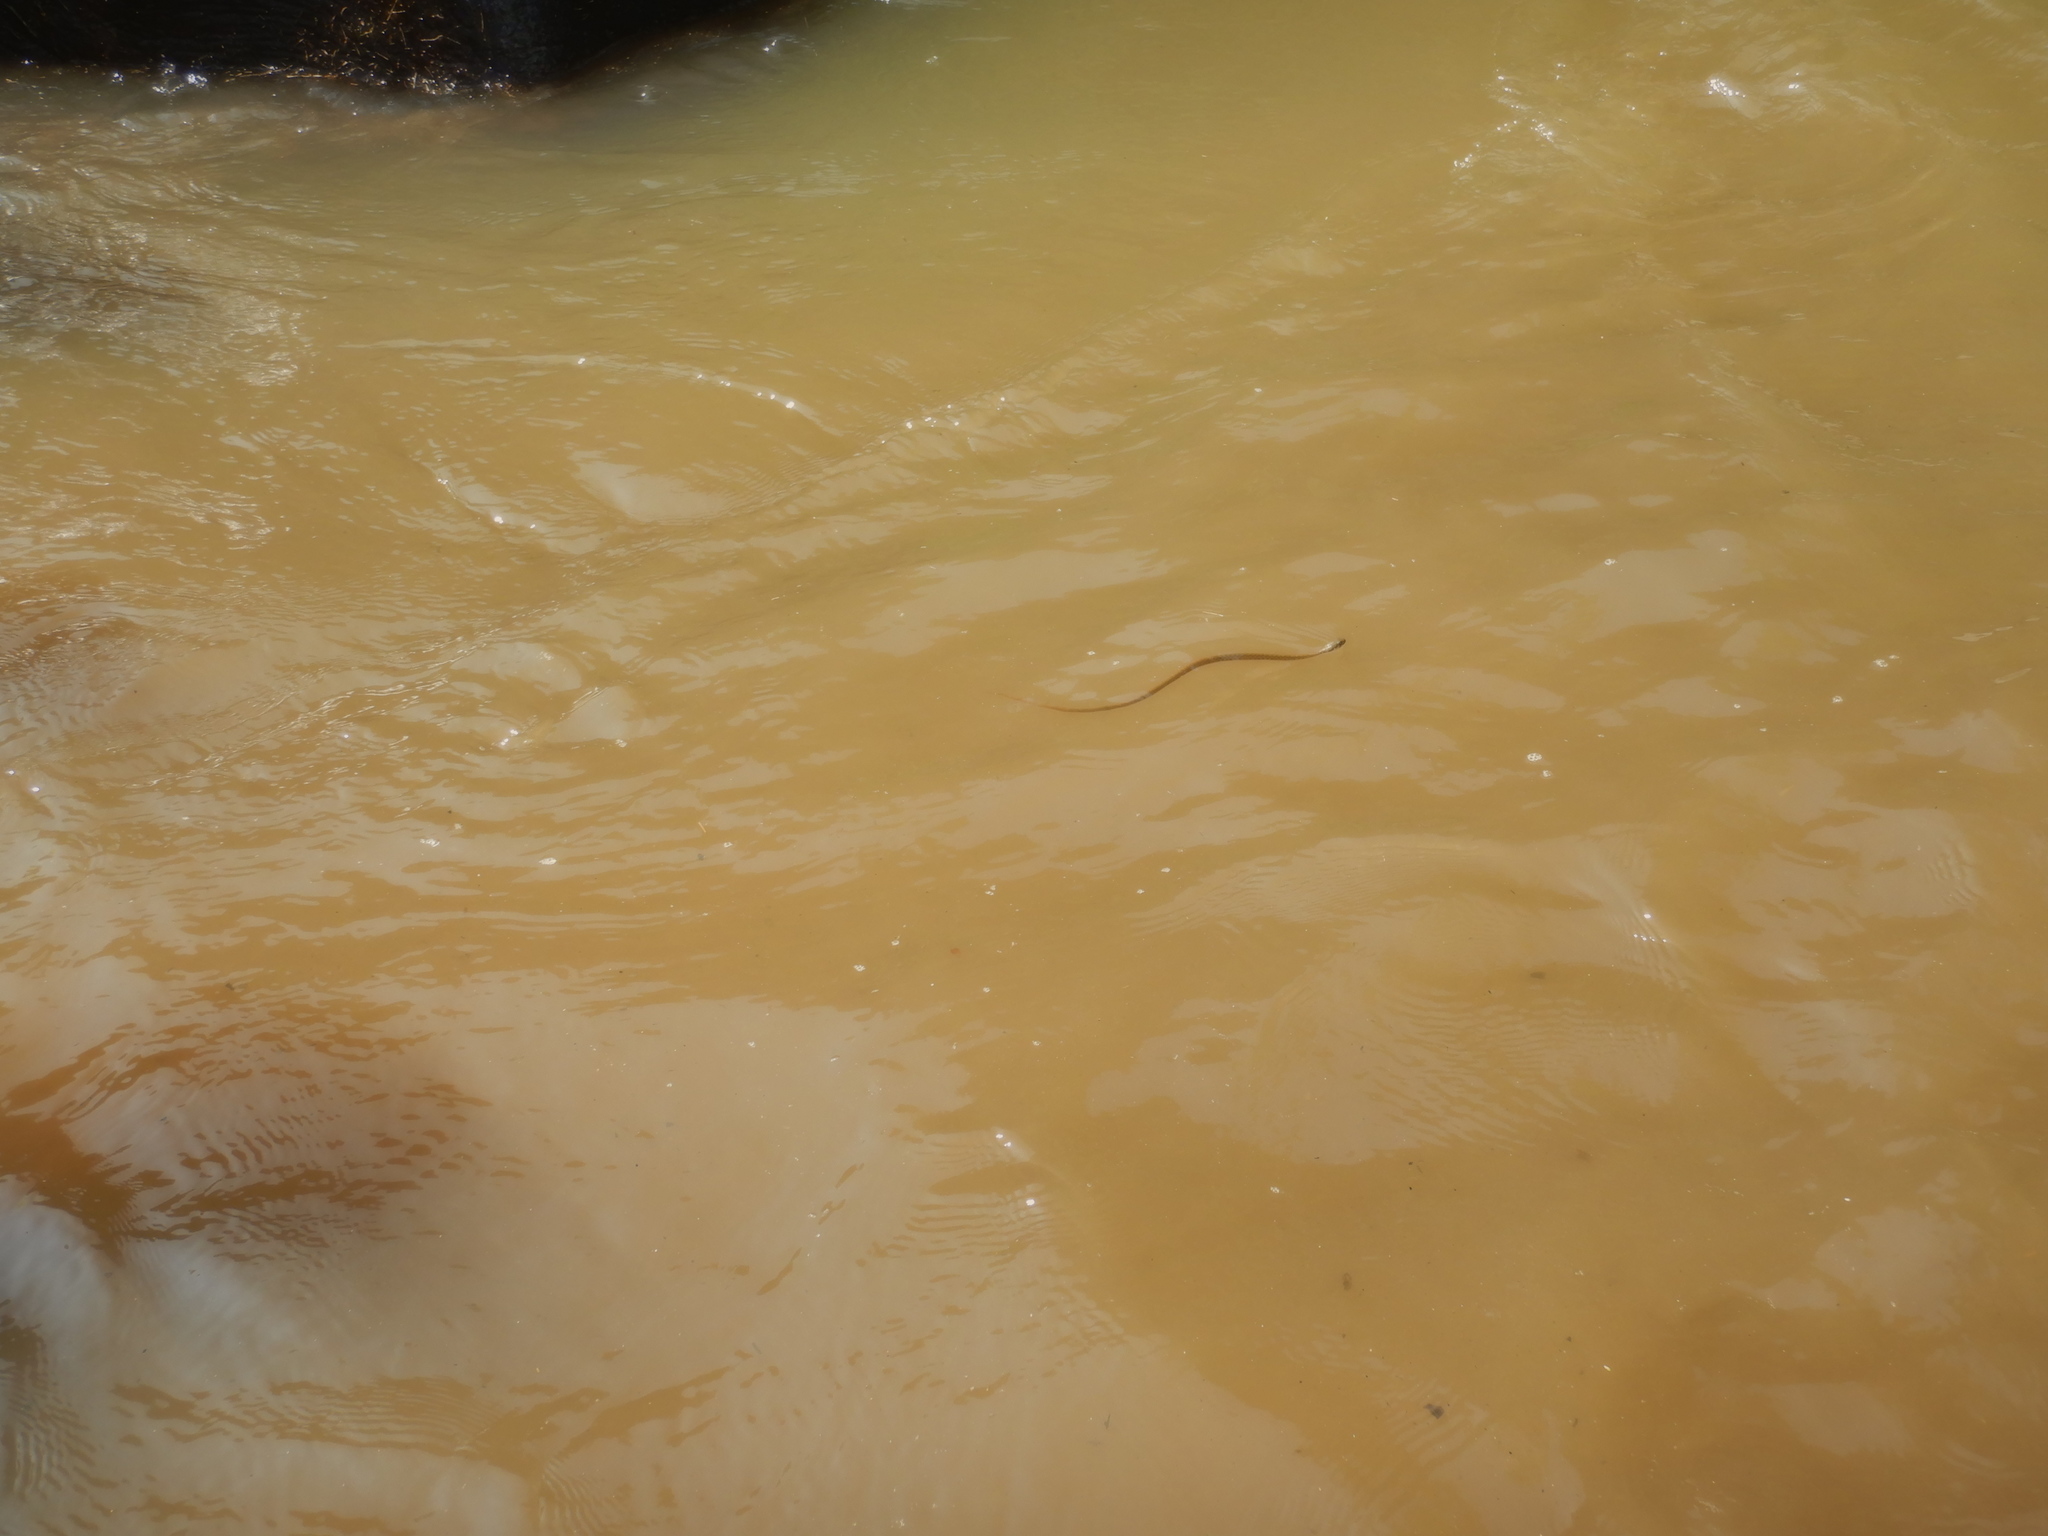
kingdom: Animalia
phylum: Chordata
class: Squamata
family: Colubridae
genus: Fowlea
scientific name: Fowlea flavipunctatus
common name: Yellow-spotted keelback
